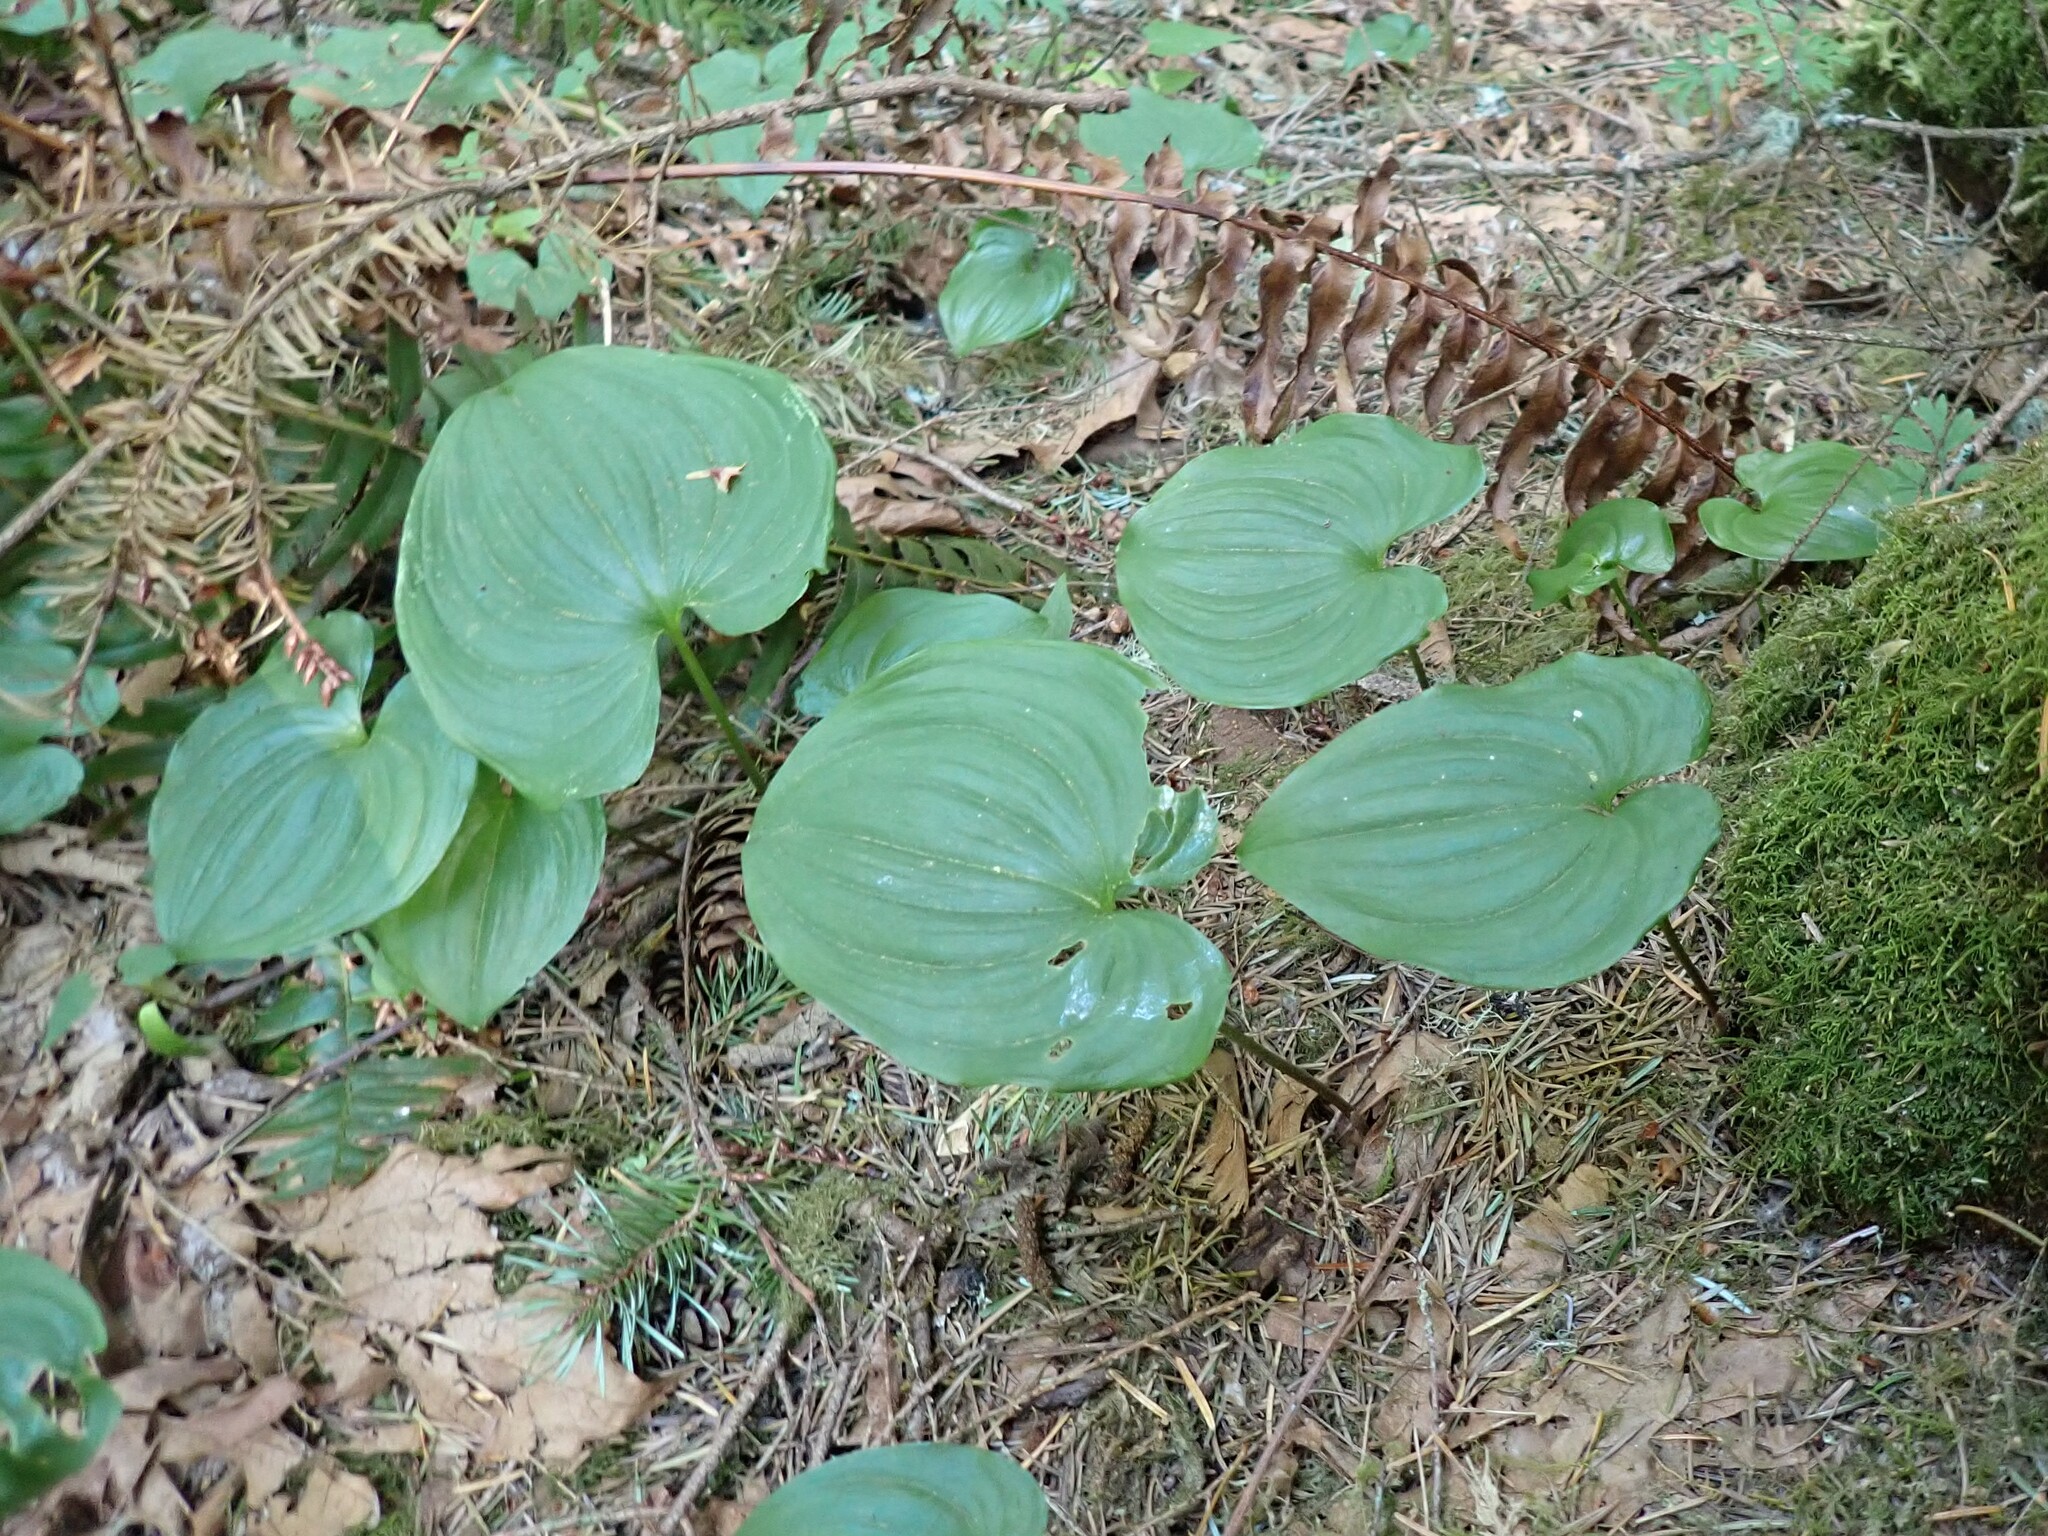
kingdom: Plantae
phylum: Tracheophyta
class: Liliopsida
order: Asparagales
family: Asparagaceae
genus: Maianthemum
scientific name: Maianthemum dilatatum
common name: False lily-of-the-valley
